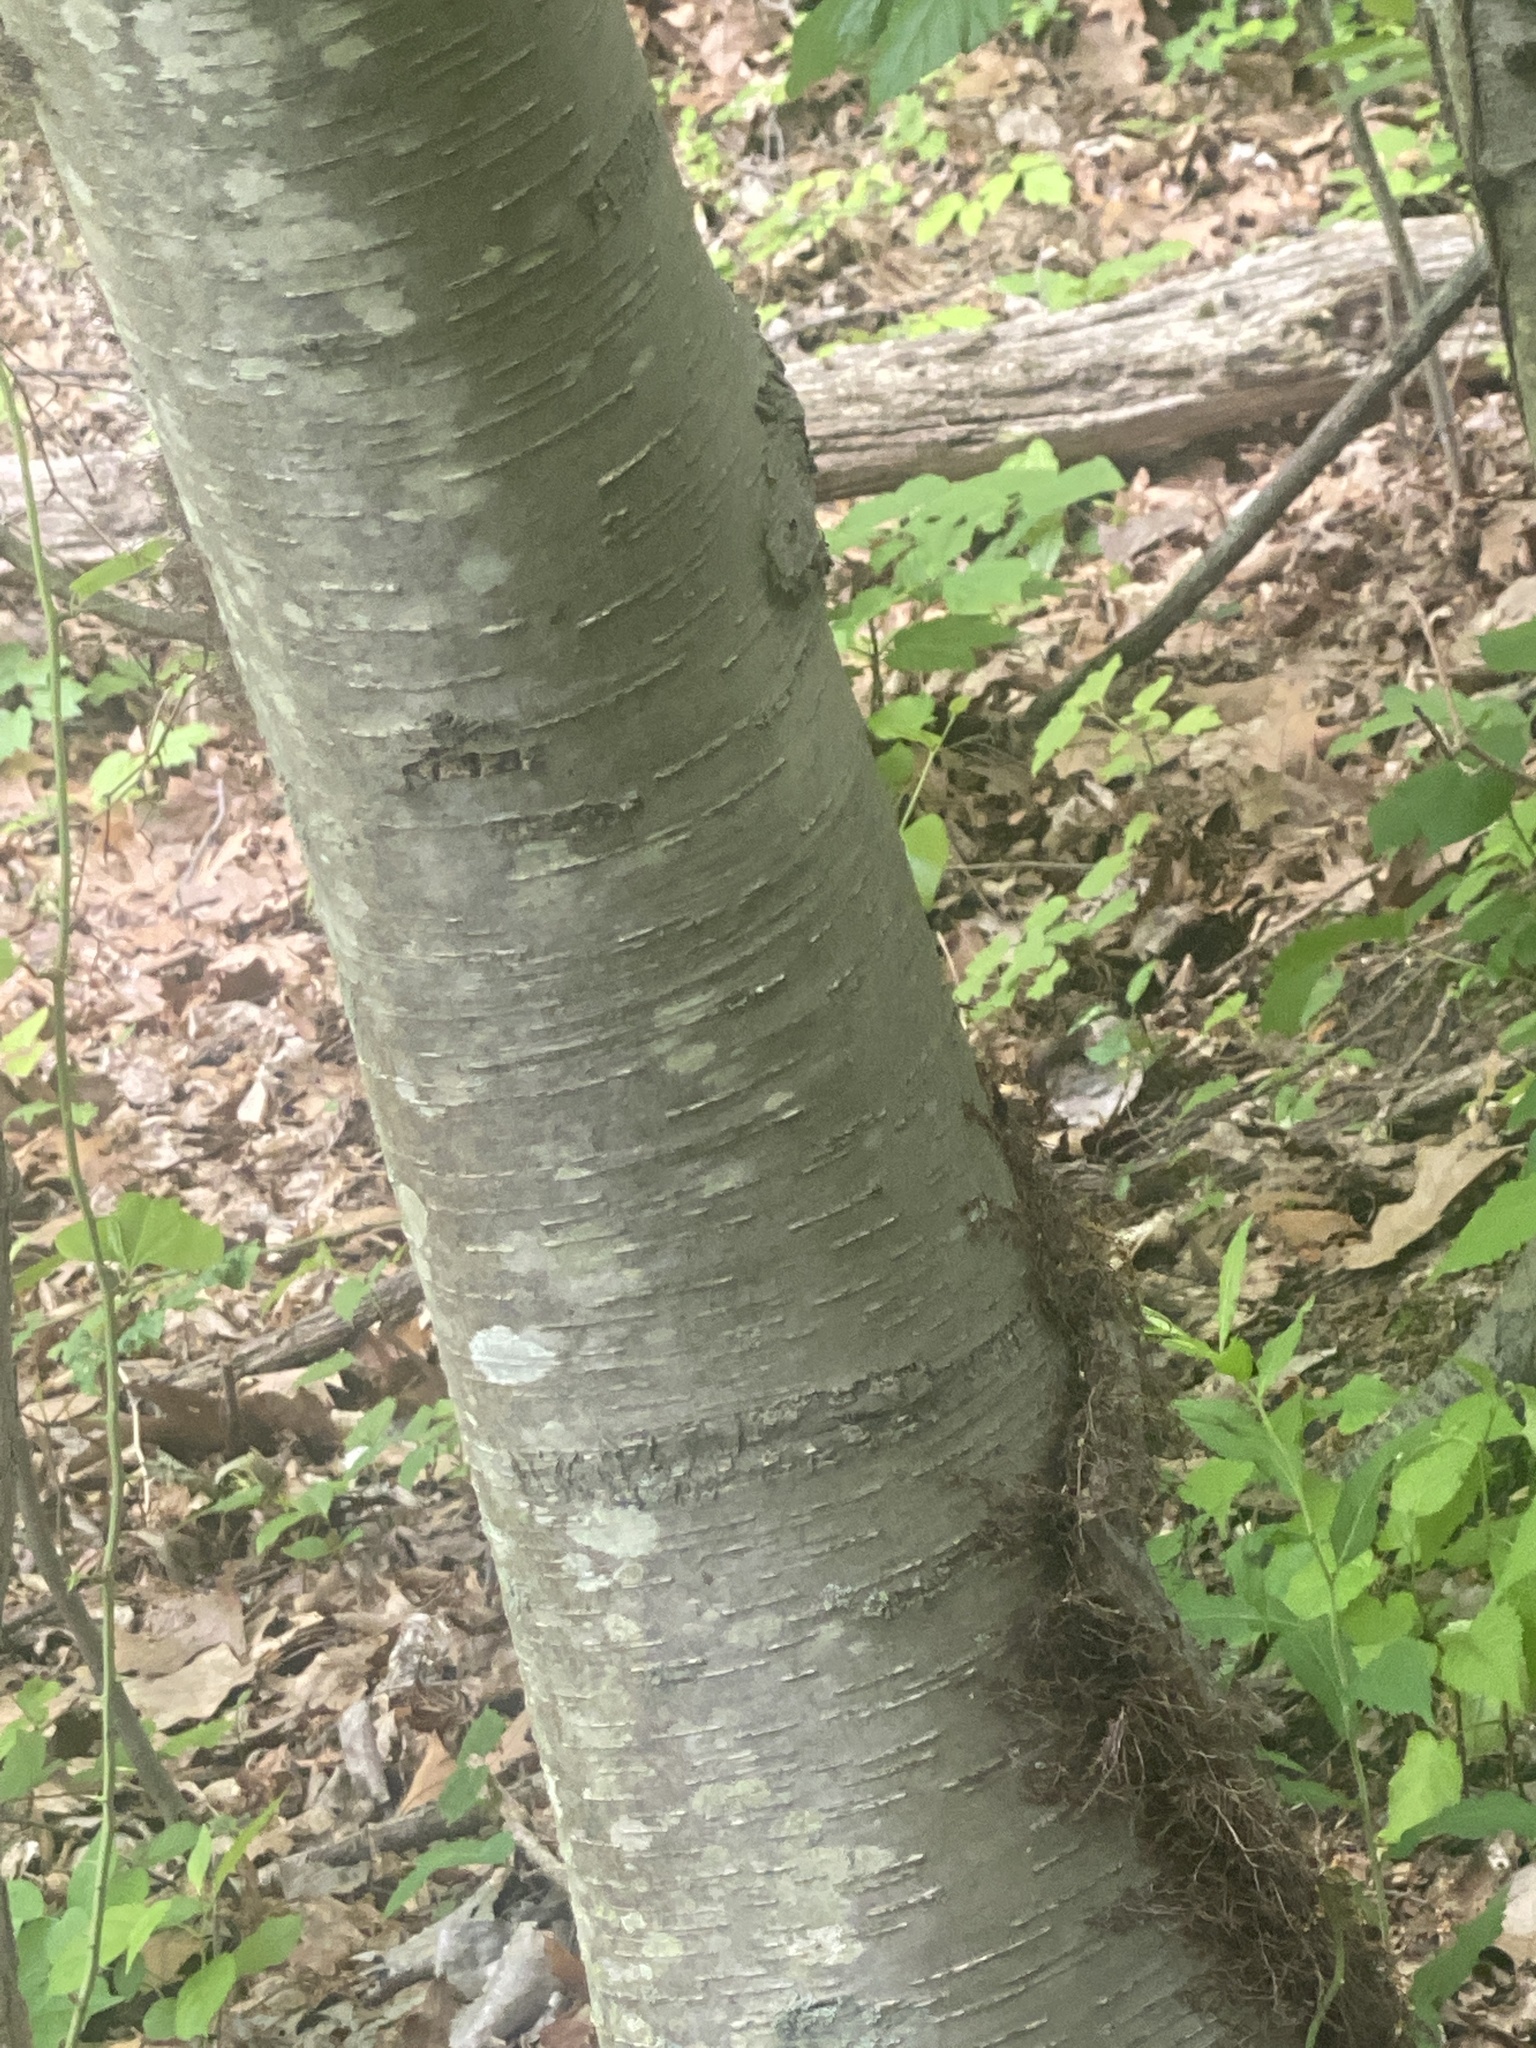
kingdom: Plantae
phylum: Tracheophyta
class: Magnoliopsida
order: Fagales
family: Betulaceae
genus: Betula
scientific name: Betula lenta
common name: Black birch
